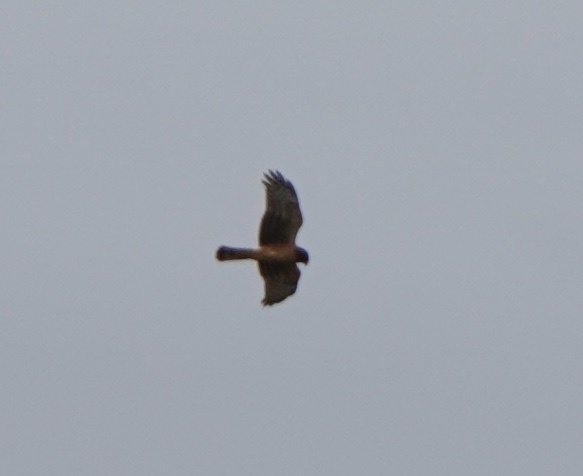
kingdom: Animalia
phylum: Chordata
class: Aves
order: Accipitriformes
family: Accipitridae
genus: Circus
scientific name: Circus cyaneus
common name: Hen harrier
